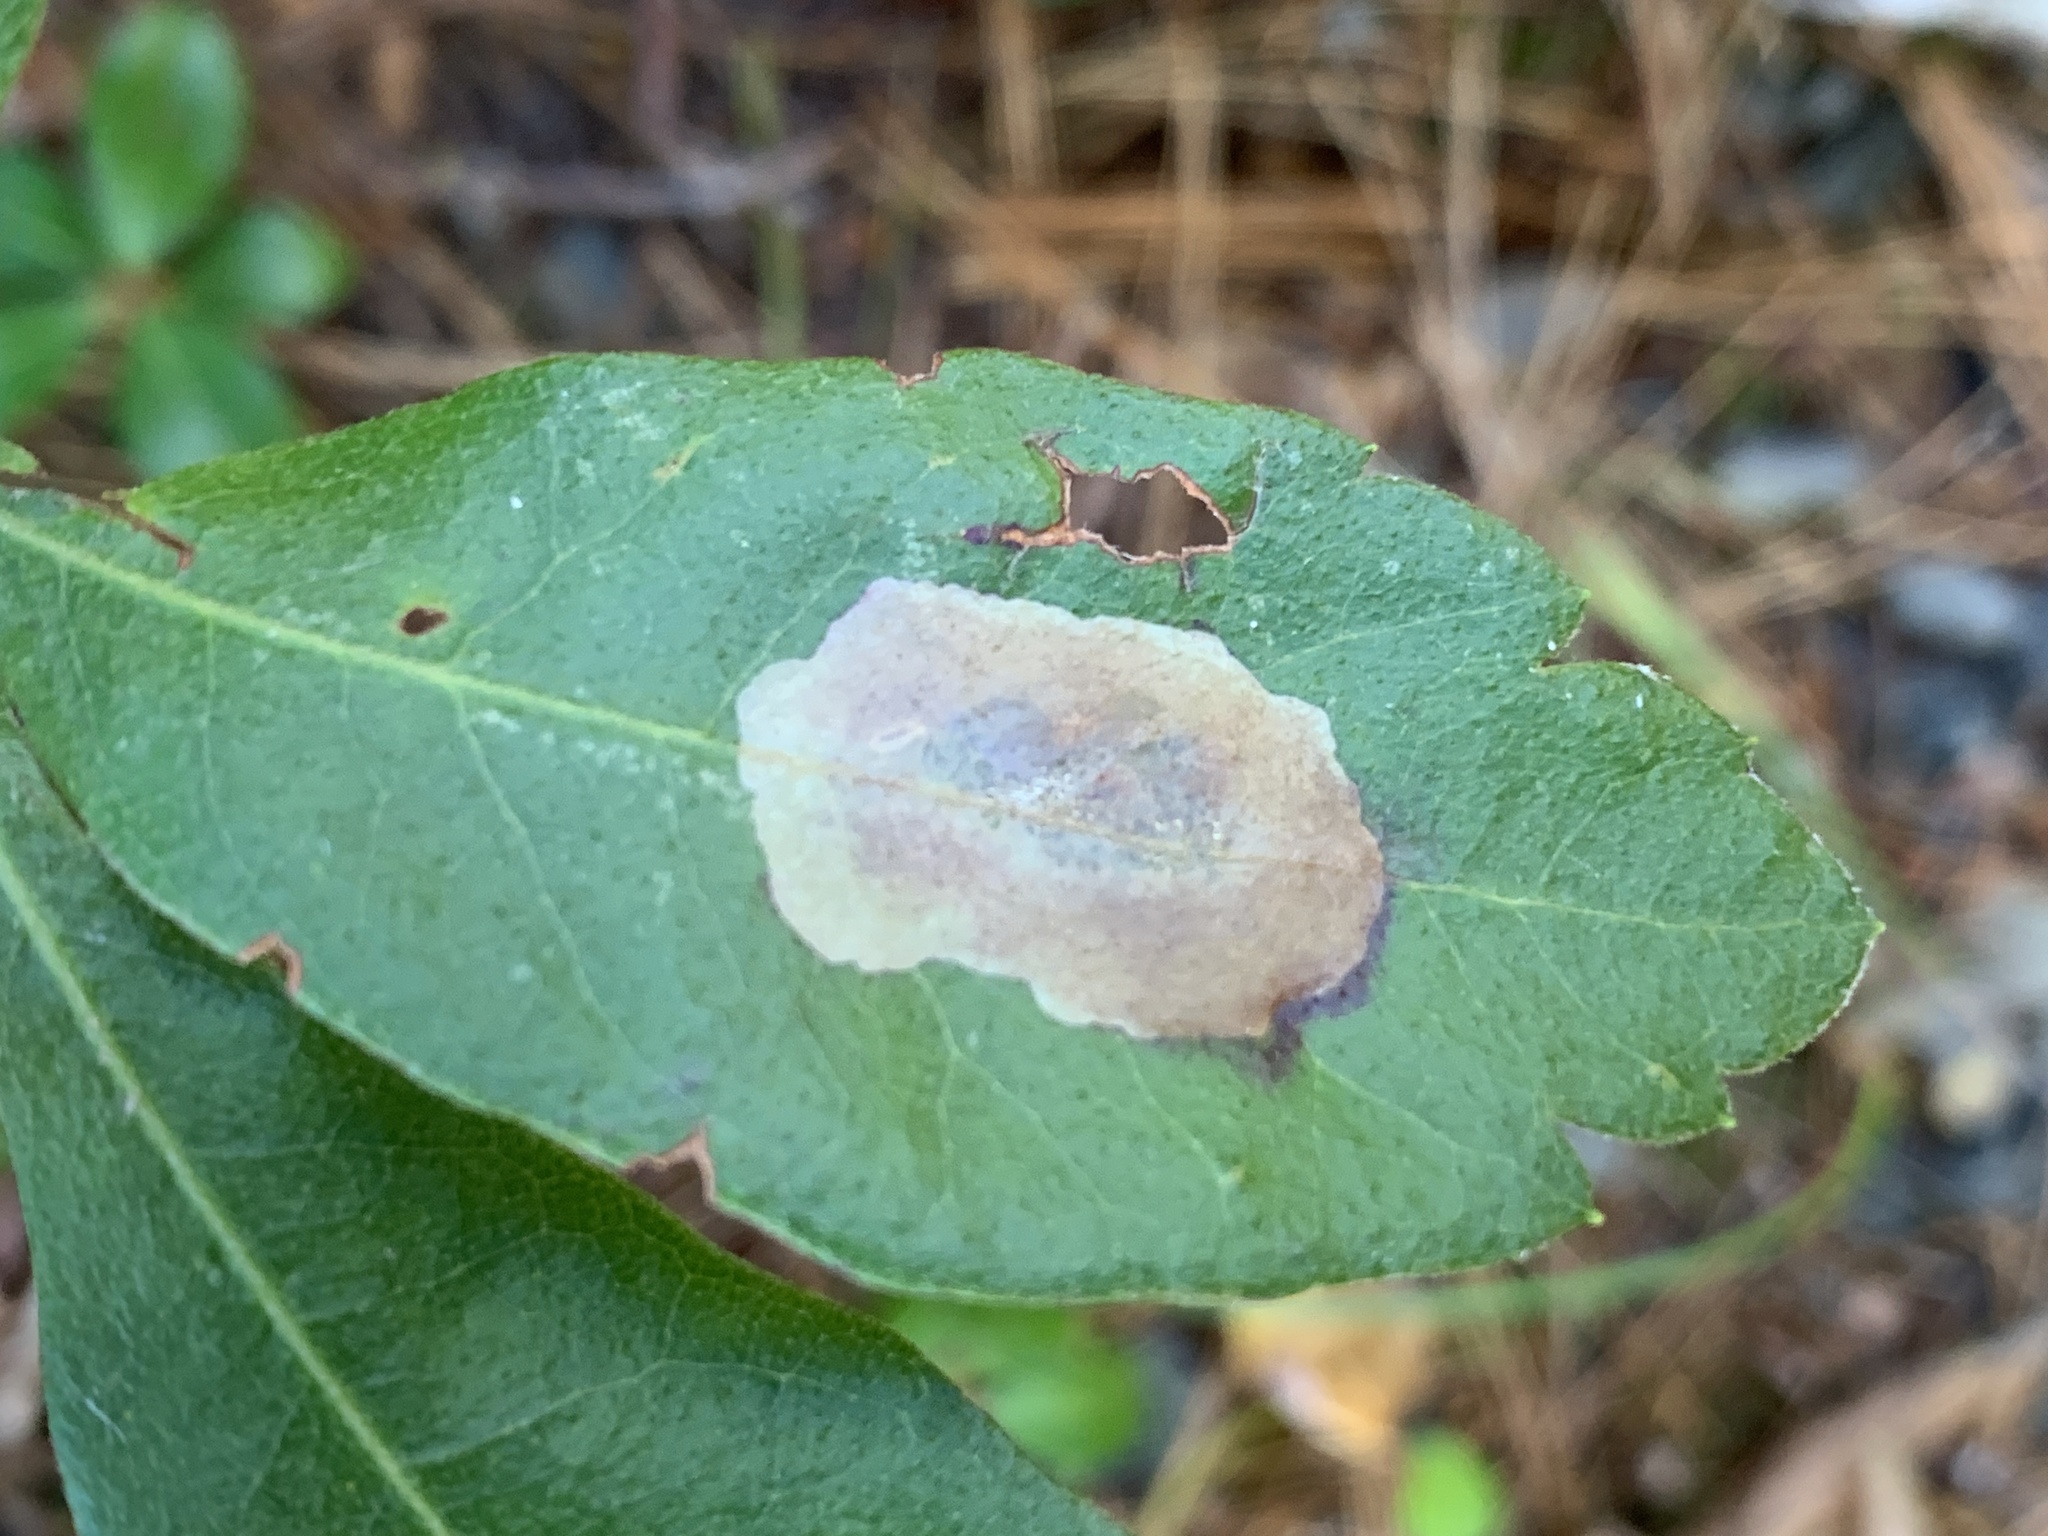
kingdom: Animalia
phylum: Arthropoda
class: Insecta
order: Lepidoptera
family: Gracillariidae
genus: Cameraria
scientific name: Cameraria picturatella
